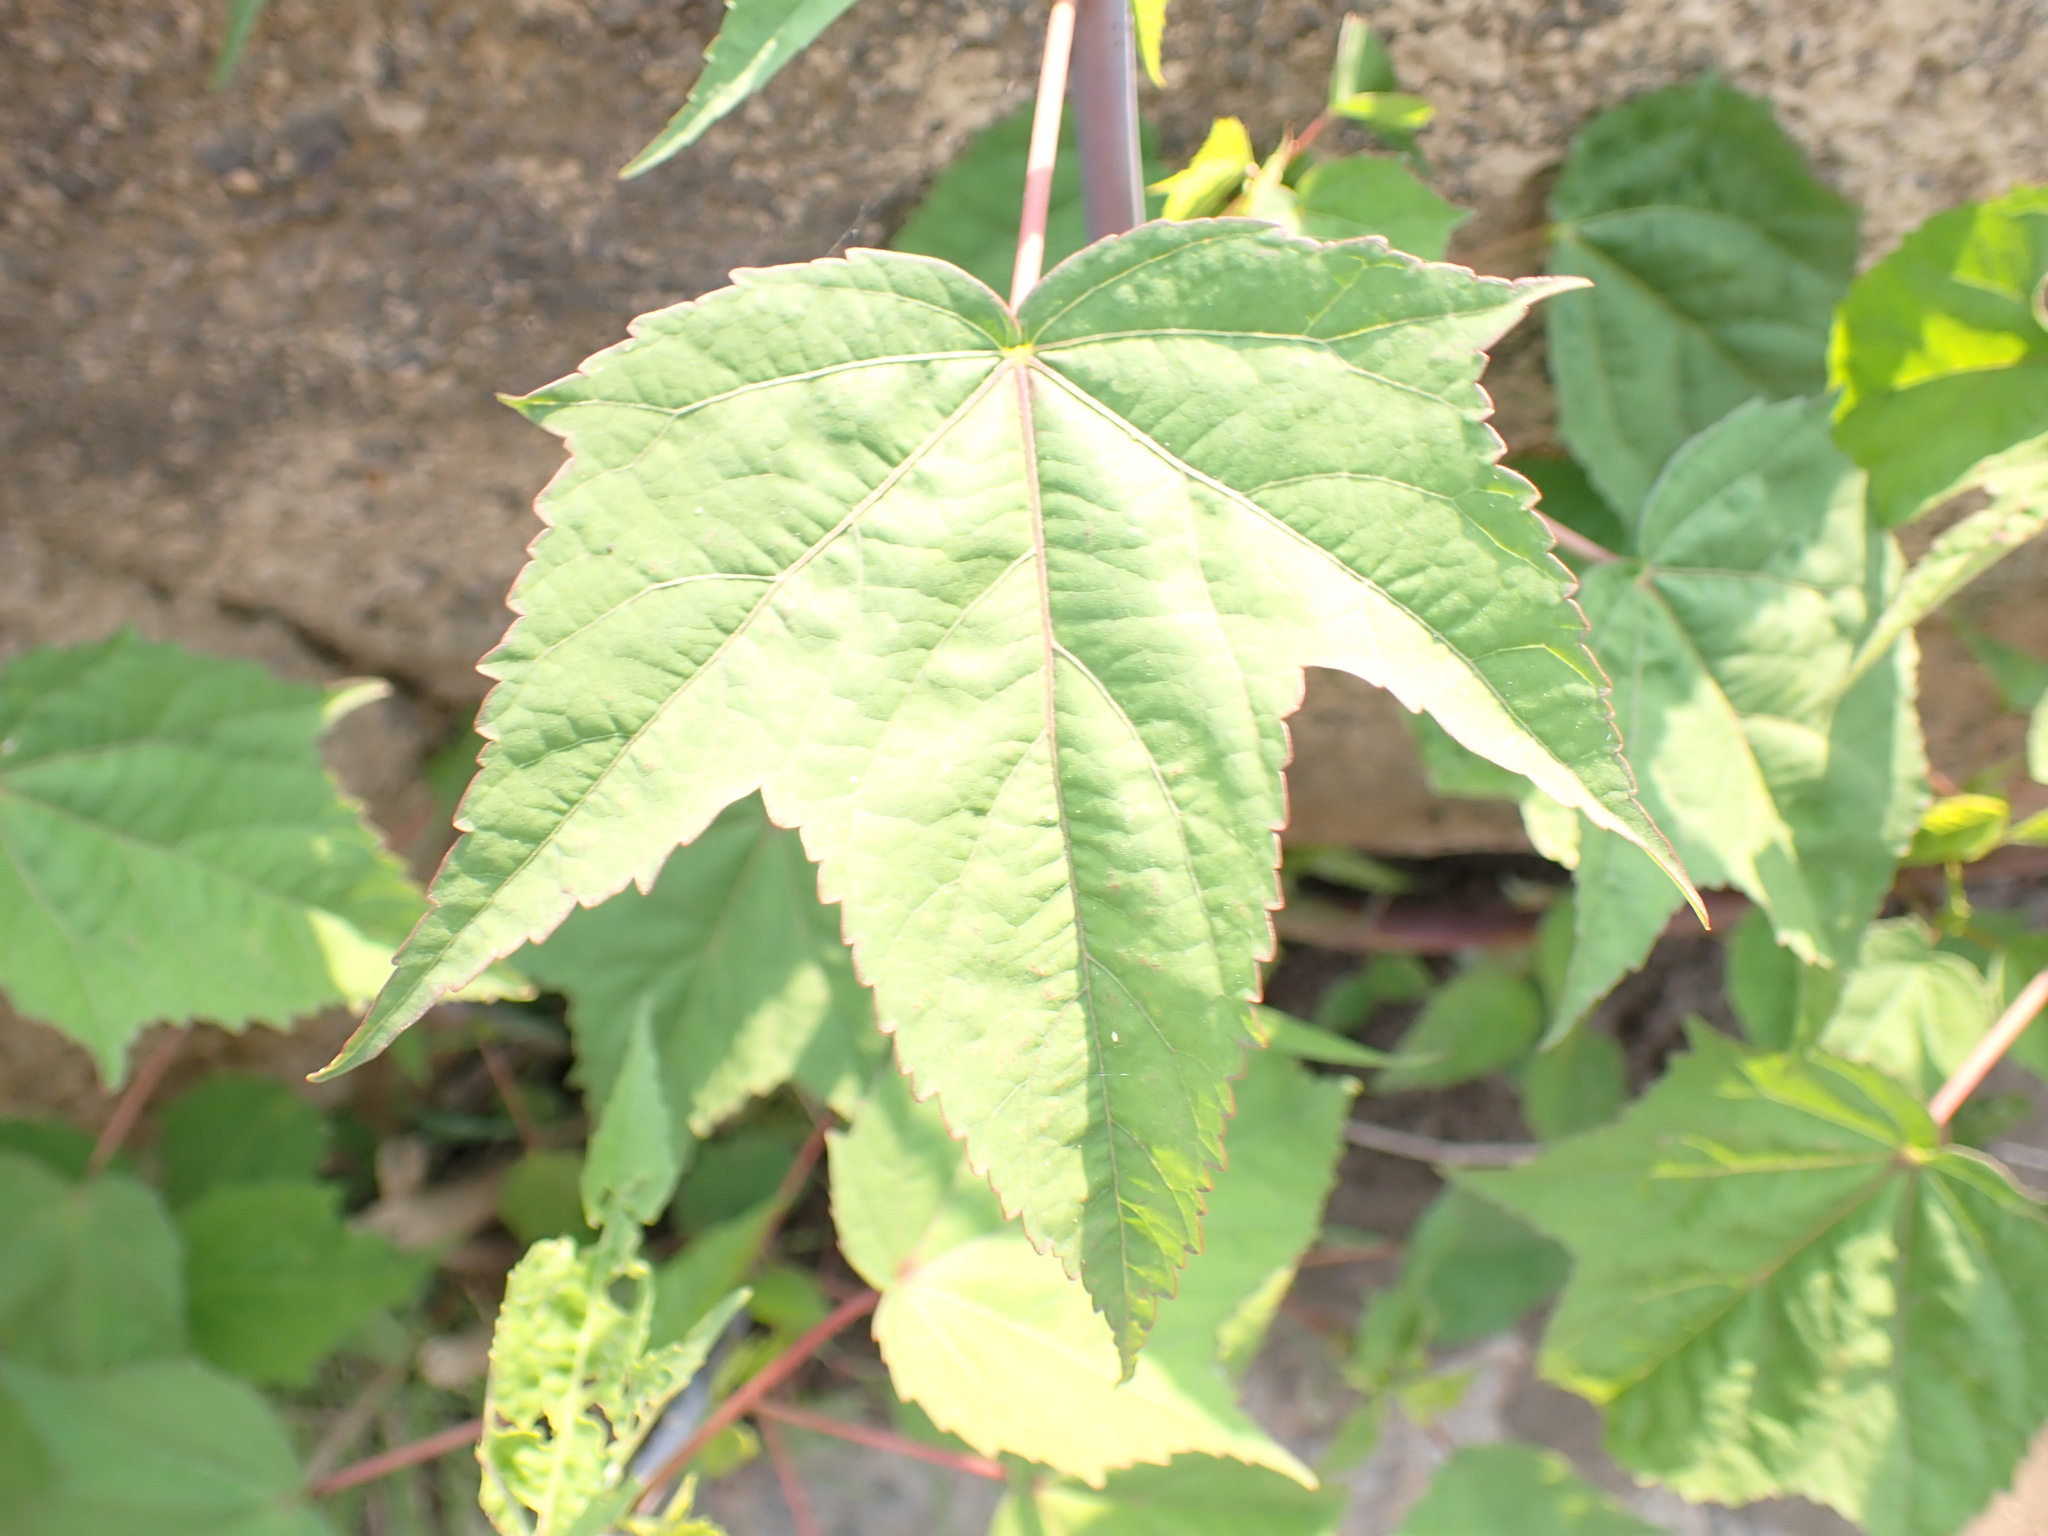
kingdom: Plantae
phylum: Tracheophyta
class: Magnoliopsida
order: Malvales
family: Malvaceae
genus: Hibiscus
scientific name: Hibiscus laevis
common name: Scarlet rose-mallow
